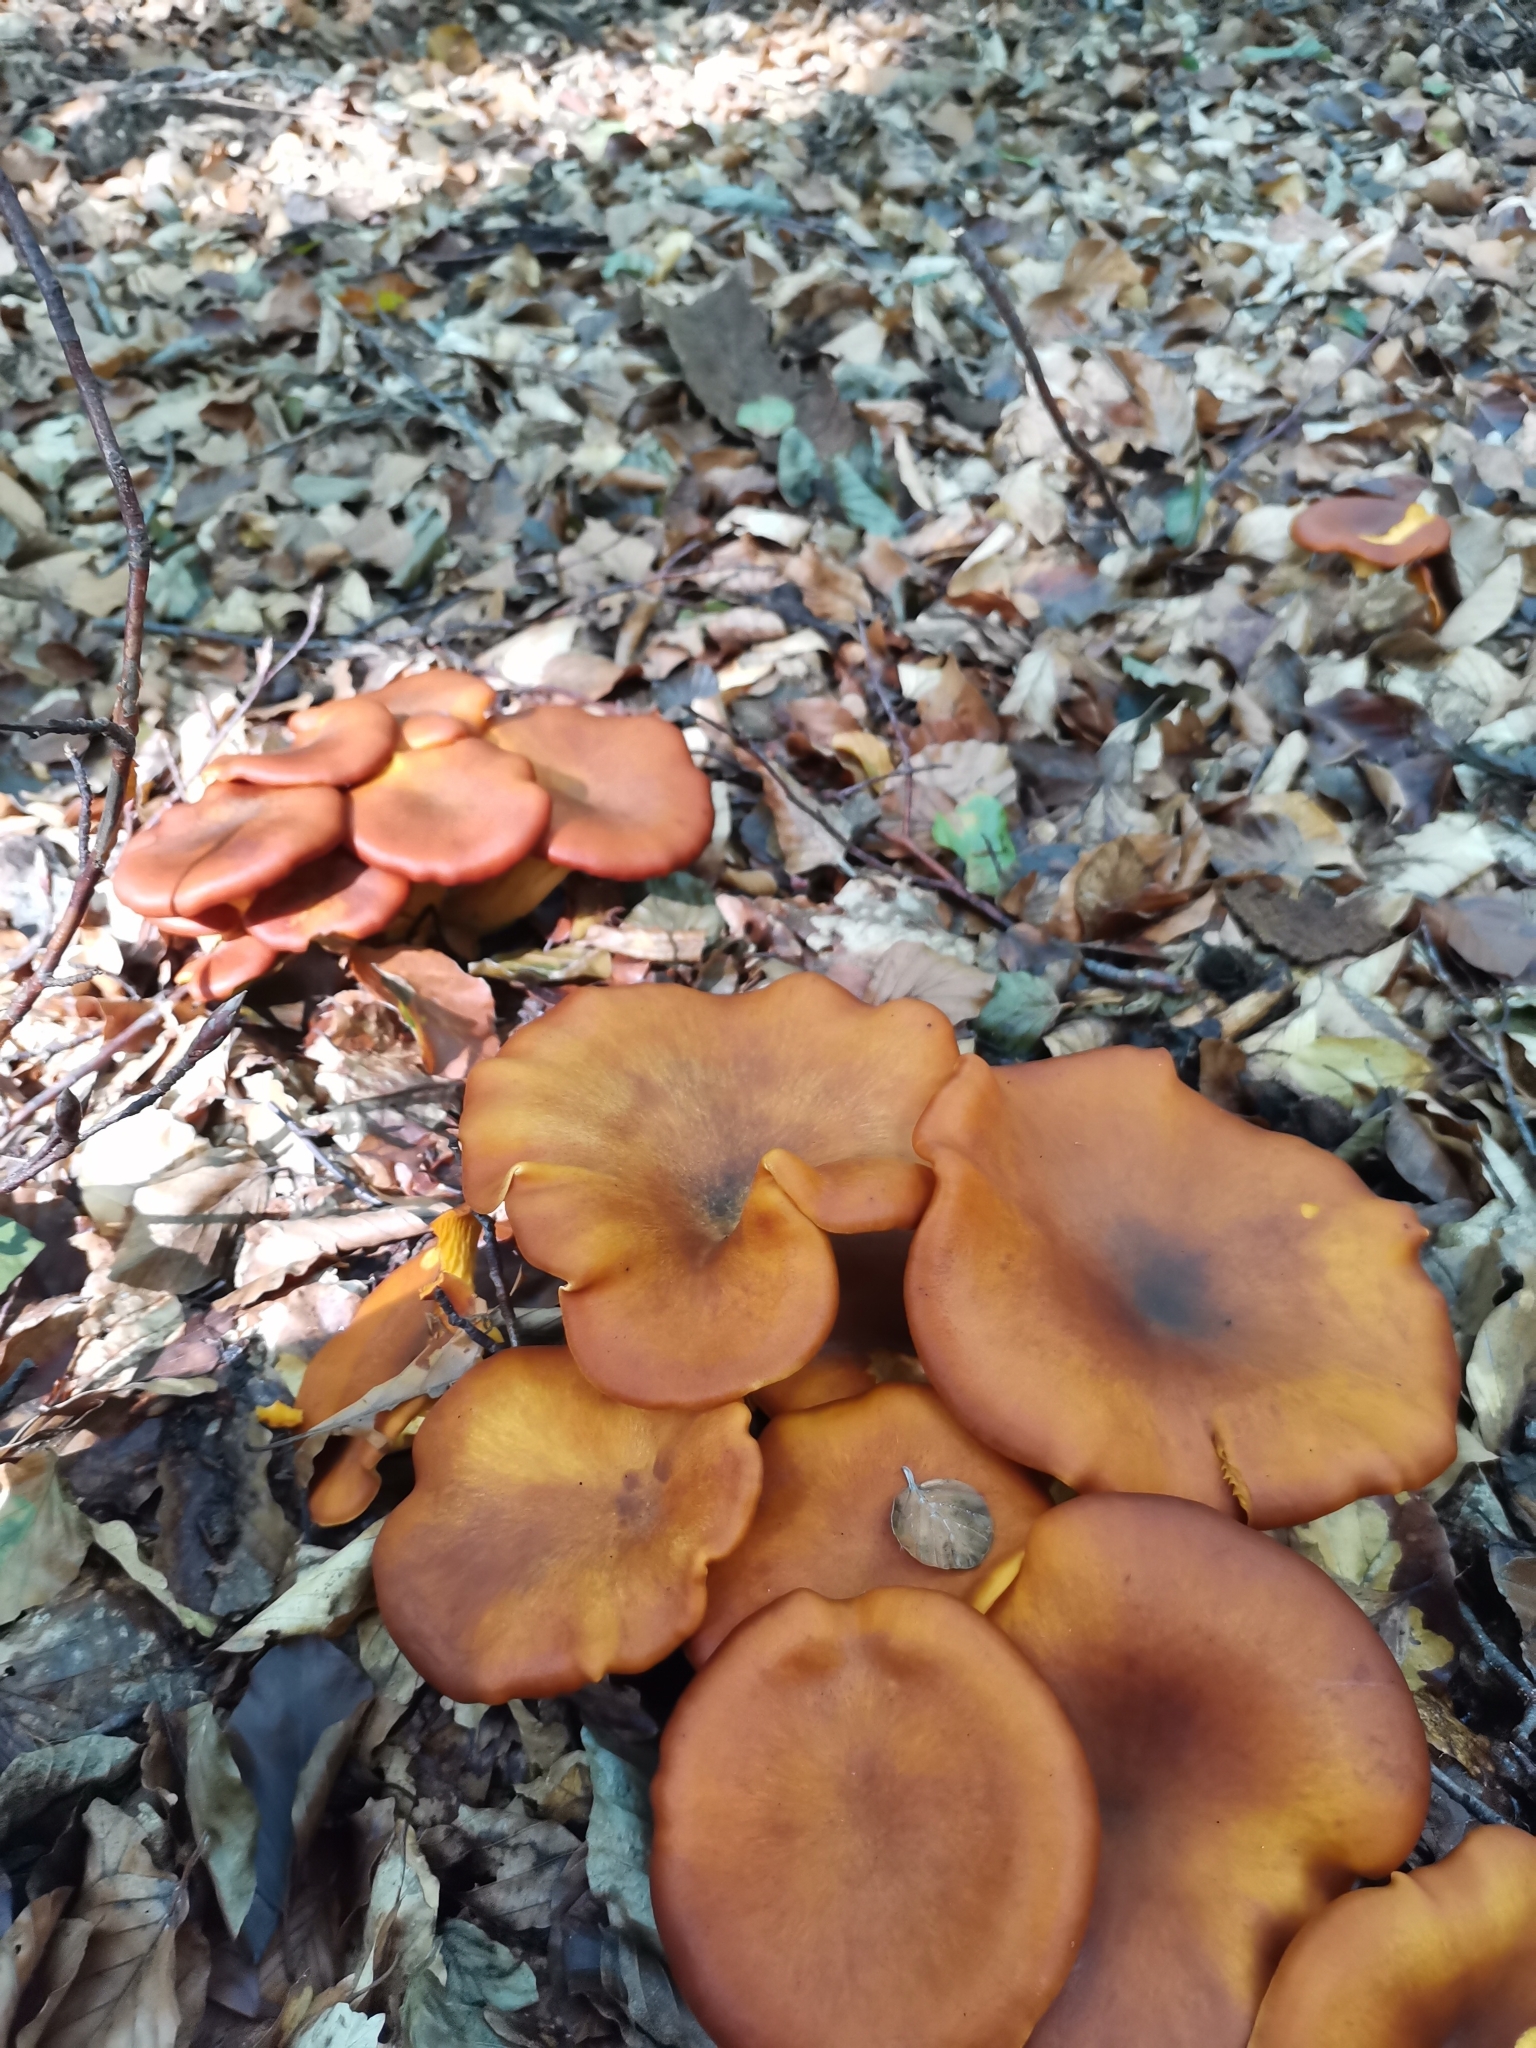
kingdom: Fungi
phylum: Basidiomycota
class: Agaricomycetes
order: Agaricales
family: Omphalotaceae
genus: Omphalotus
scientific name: Omphalotus olearius
